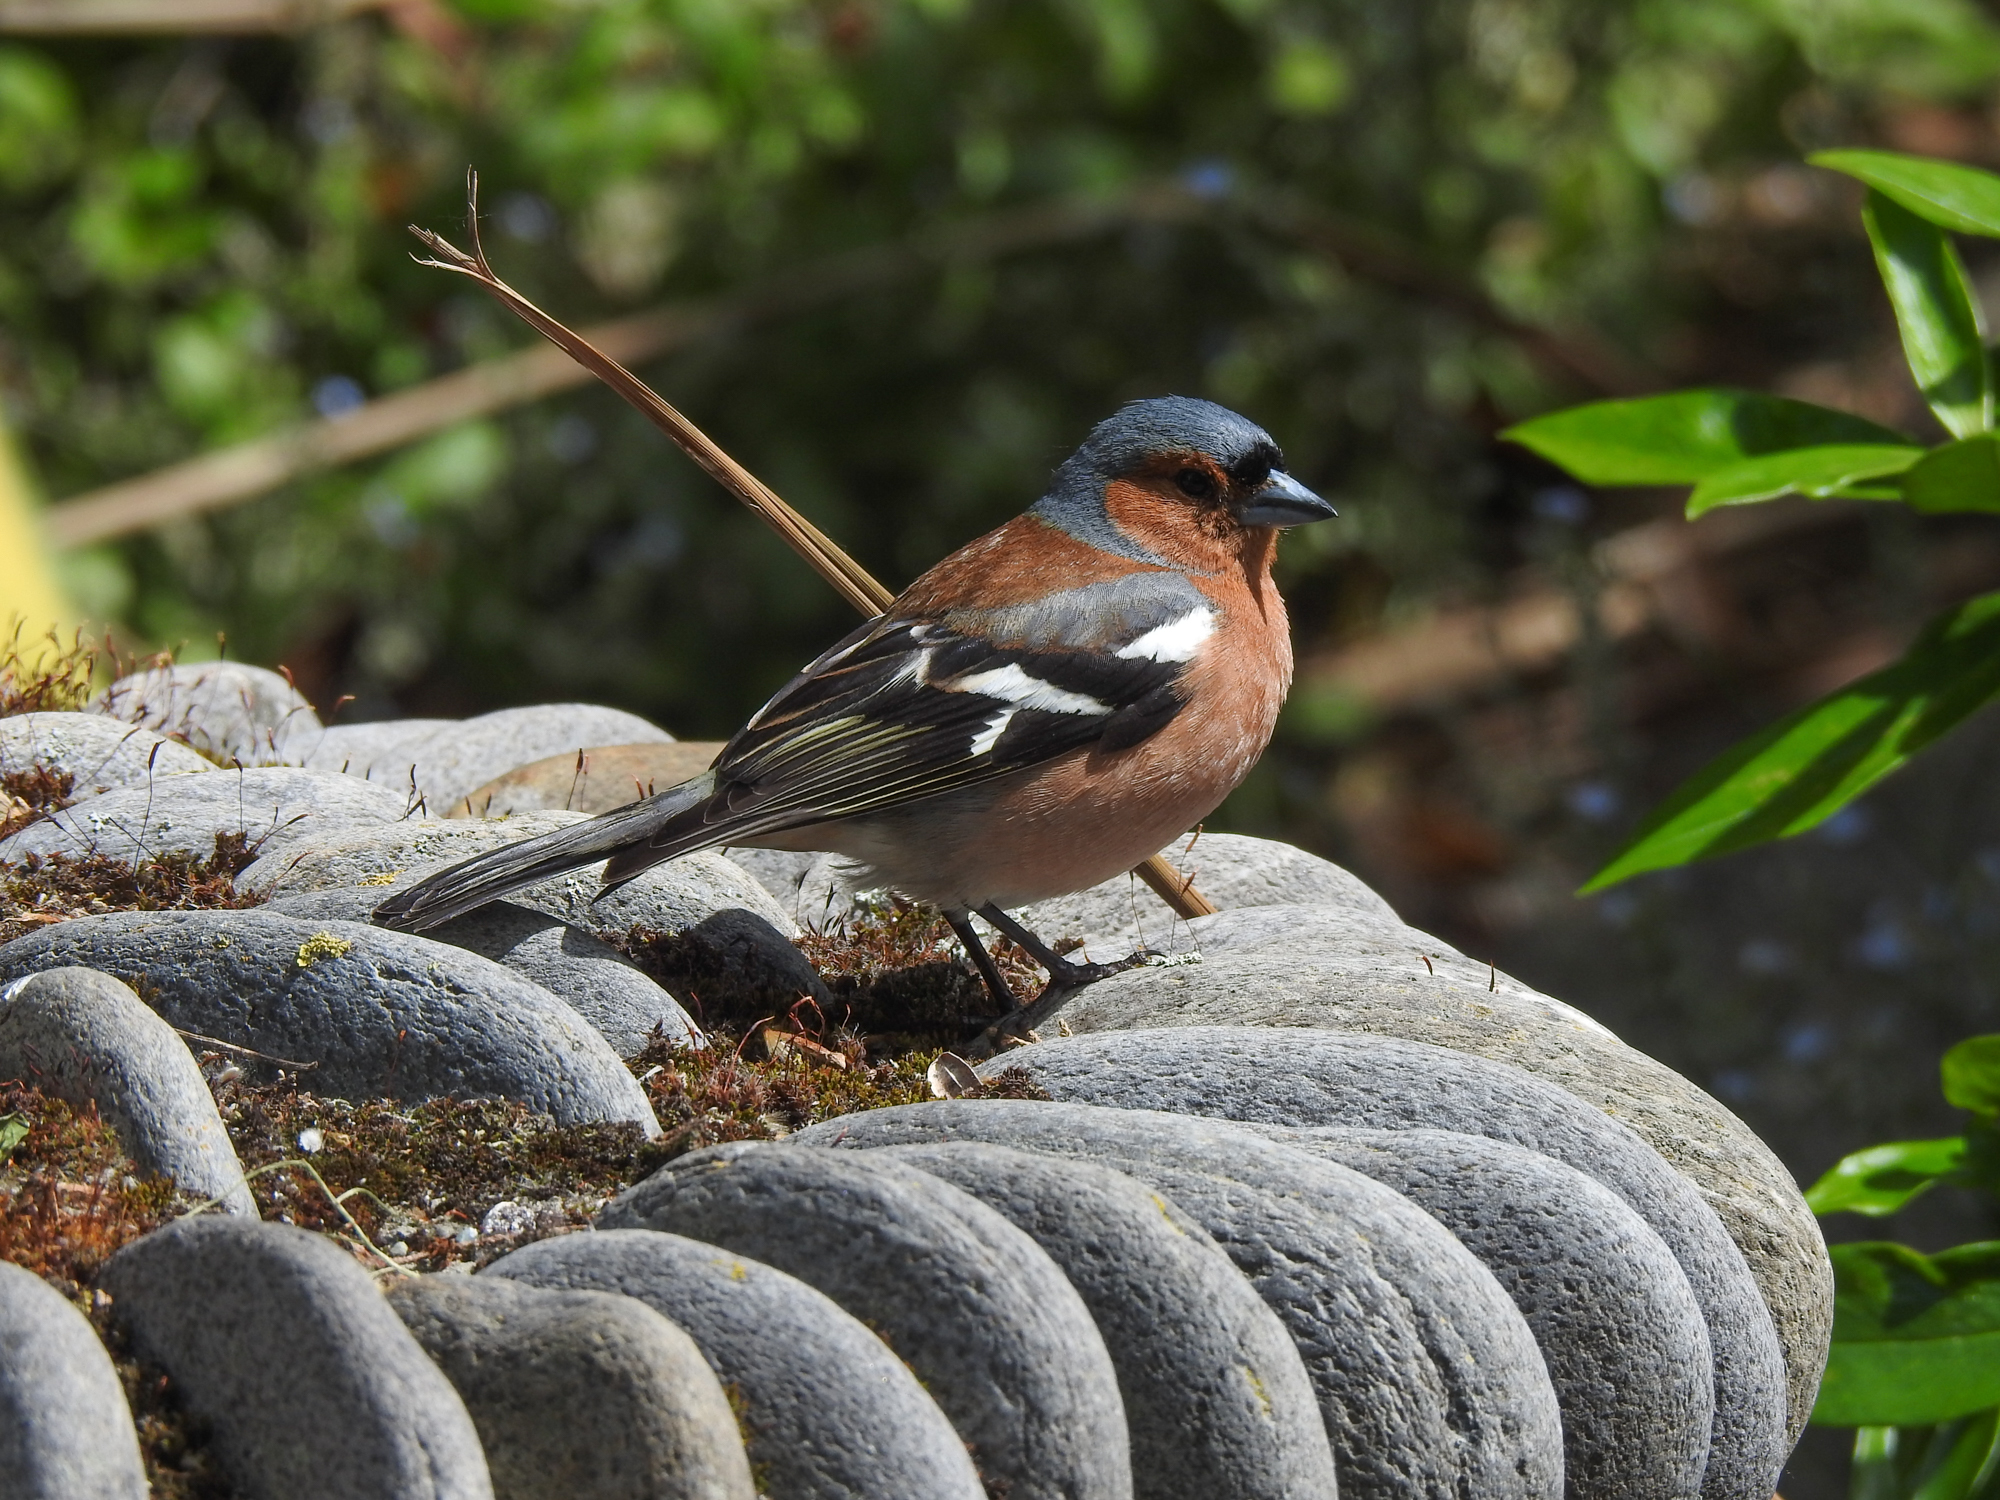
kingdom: Animalia
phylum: Chordata
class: Aves
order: Passeriformes
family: Fringillidae
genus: Fringilla
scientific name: Fringilla coelebs
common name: Common chaffinch
